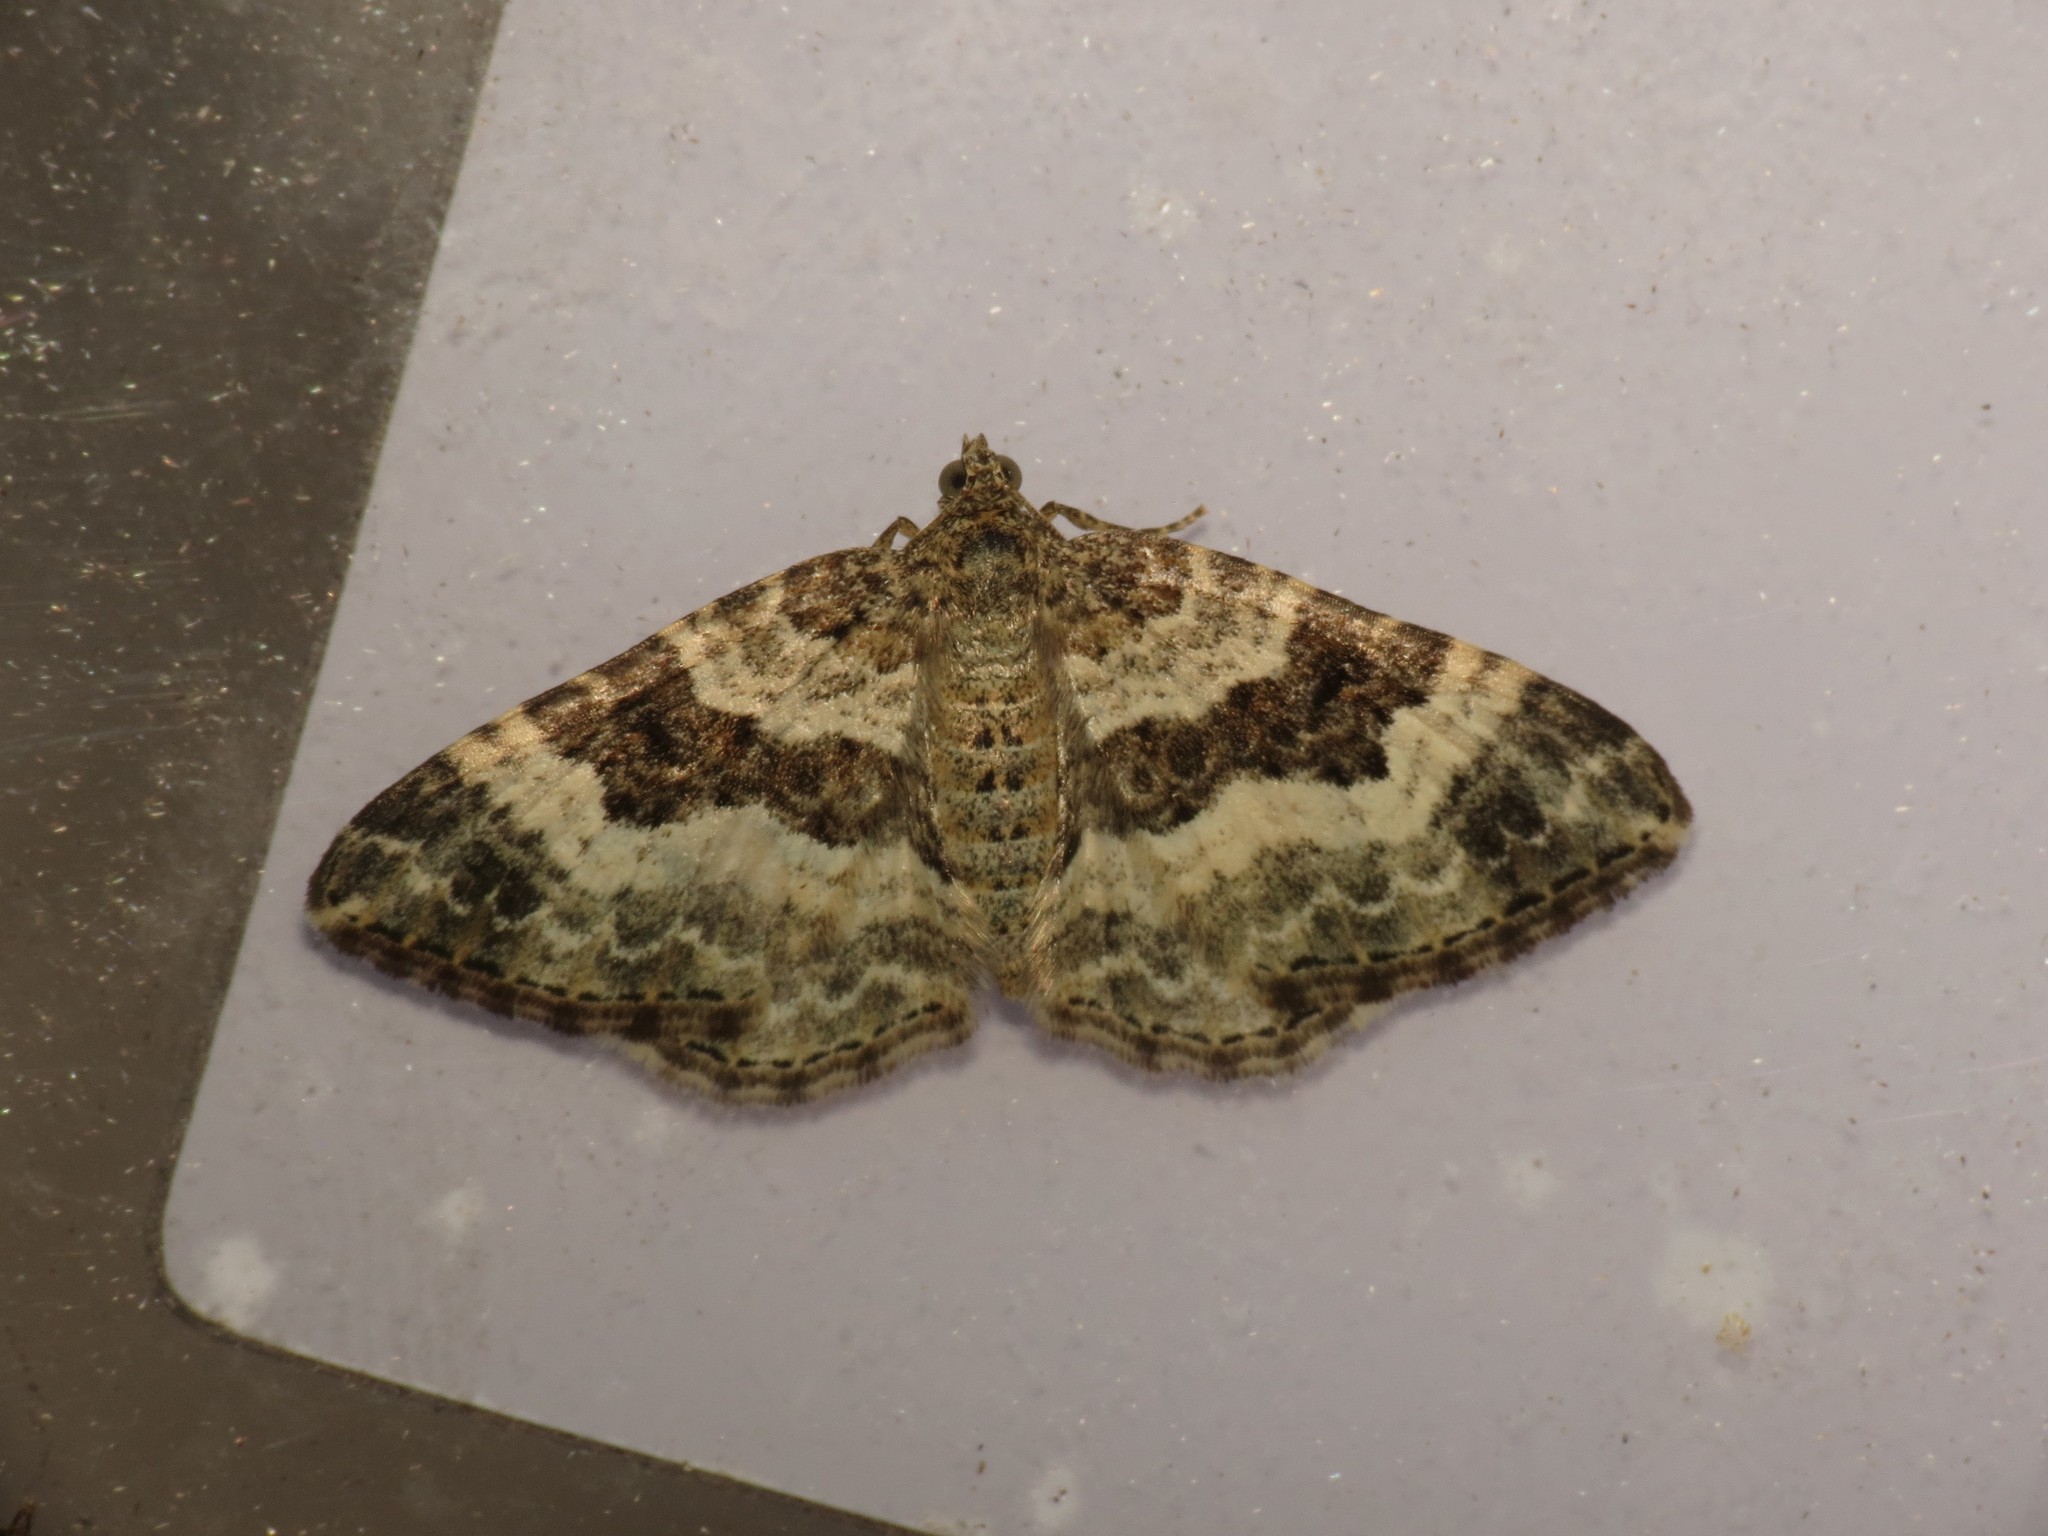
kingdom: Animalia
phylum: Arthropoda
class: Insecta
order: Lepidoptera
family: Geometridae
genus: Epirrhoe
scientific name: Epirrhoe alternata
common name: Common carpet
